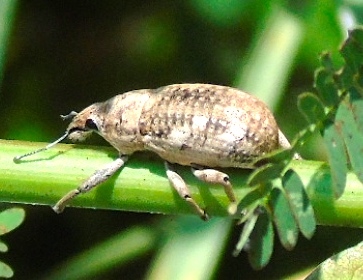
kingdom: Animalia
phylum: Arthropoda
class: Insecta
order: Coleoptera
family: Curculionidae
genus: Epicaerus
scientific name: Epicaerus
